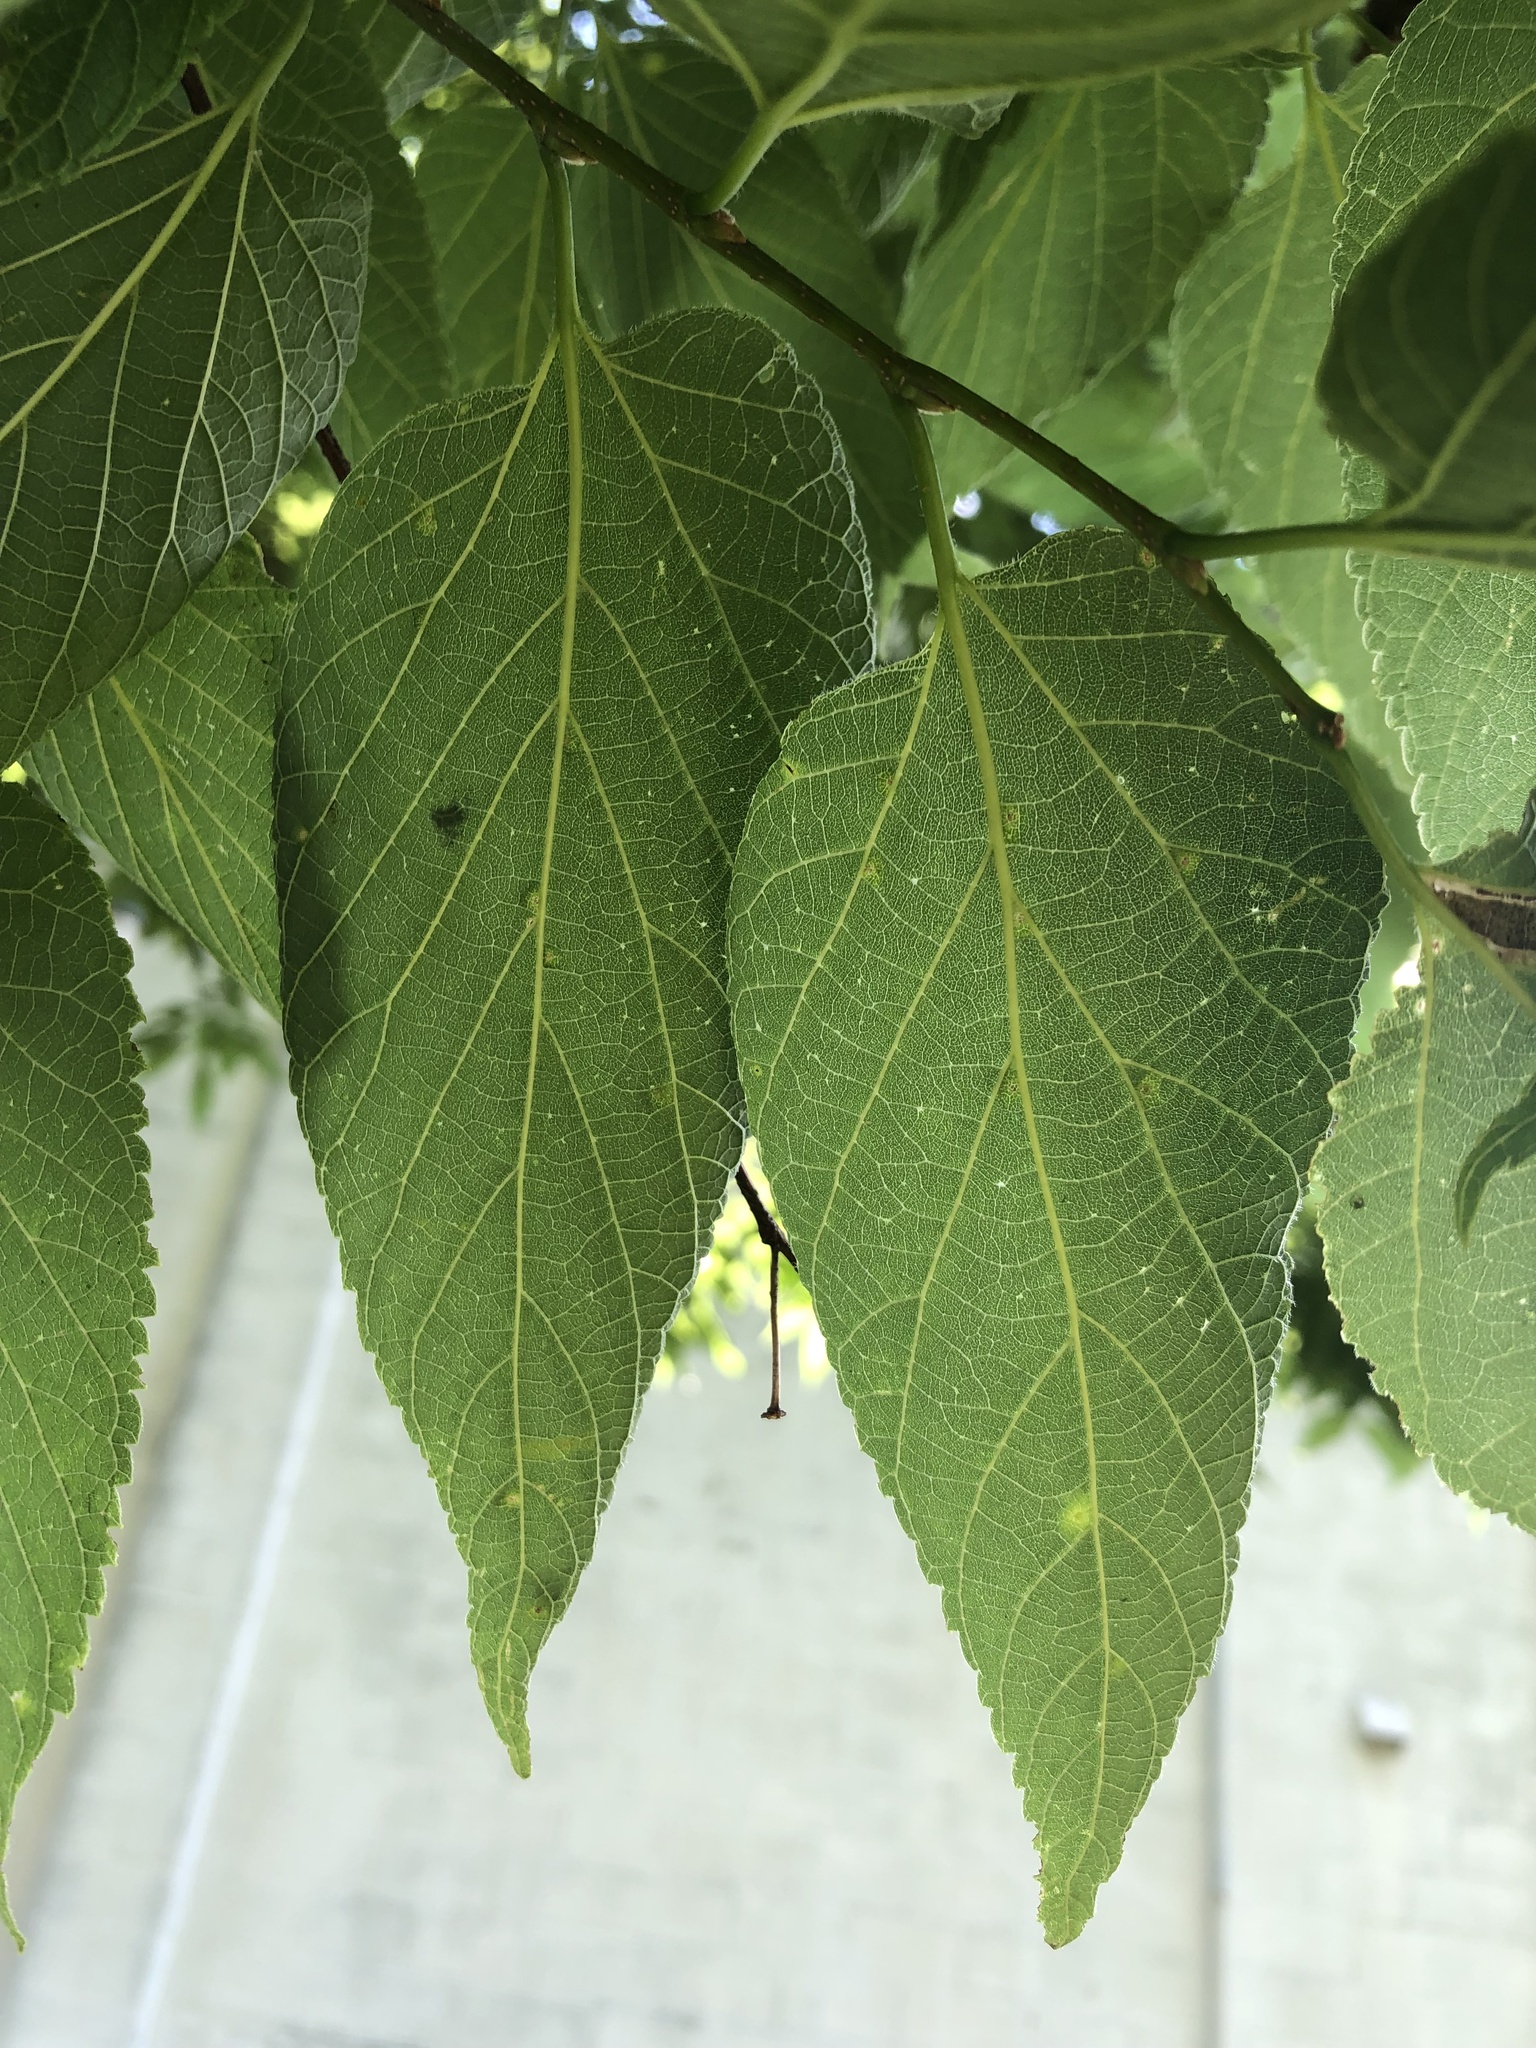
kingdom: Plantae
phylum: Tracheophyta
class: Magnoliopsida
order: Rosales
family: Cannabaceae
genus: Celtis
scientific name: Celtis occidentalis
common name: Common hackberry
